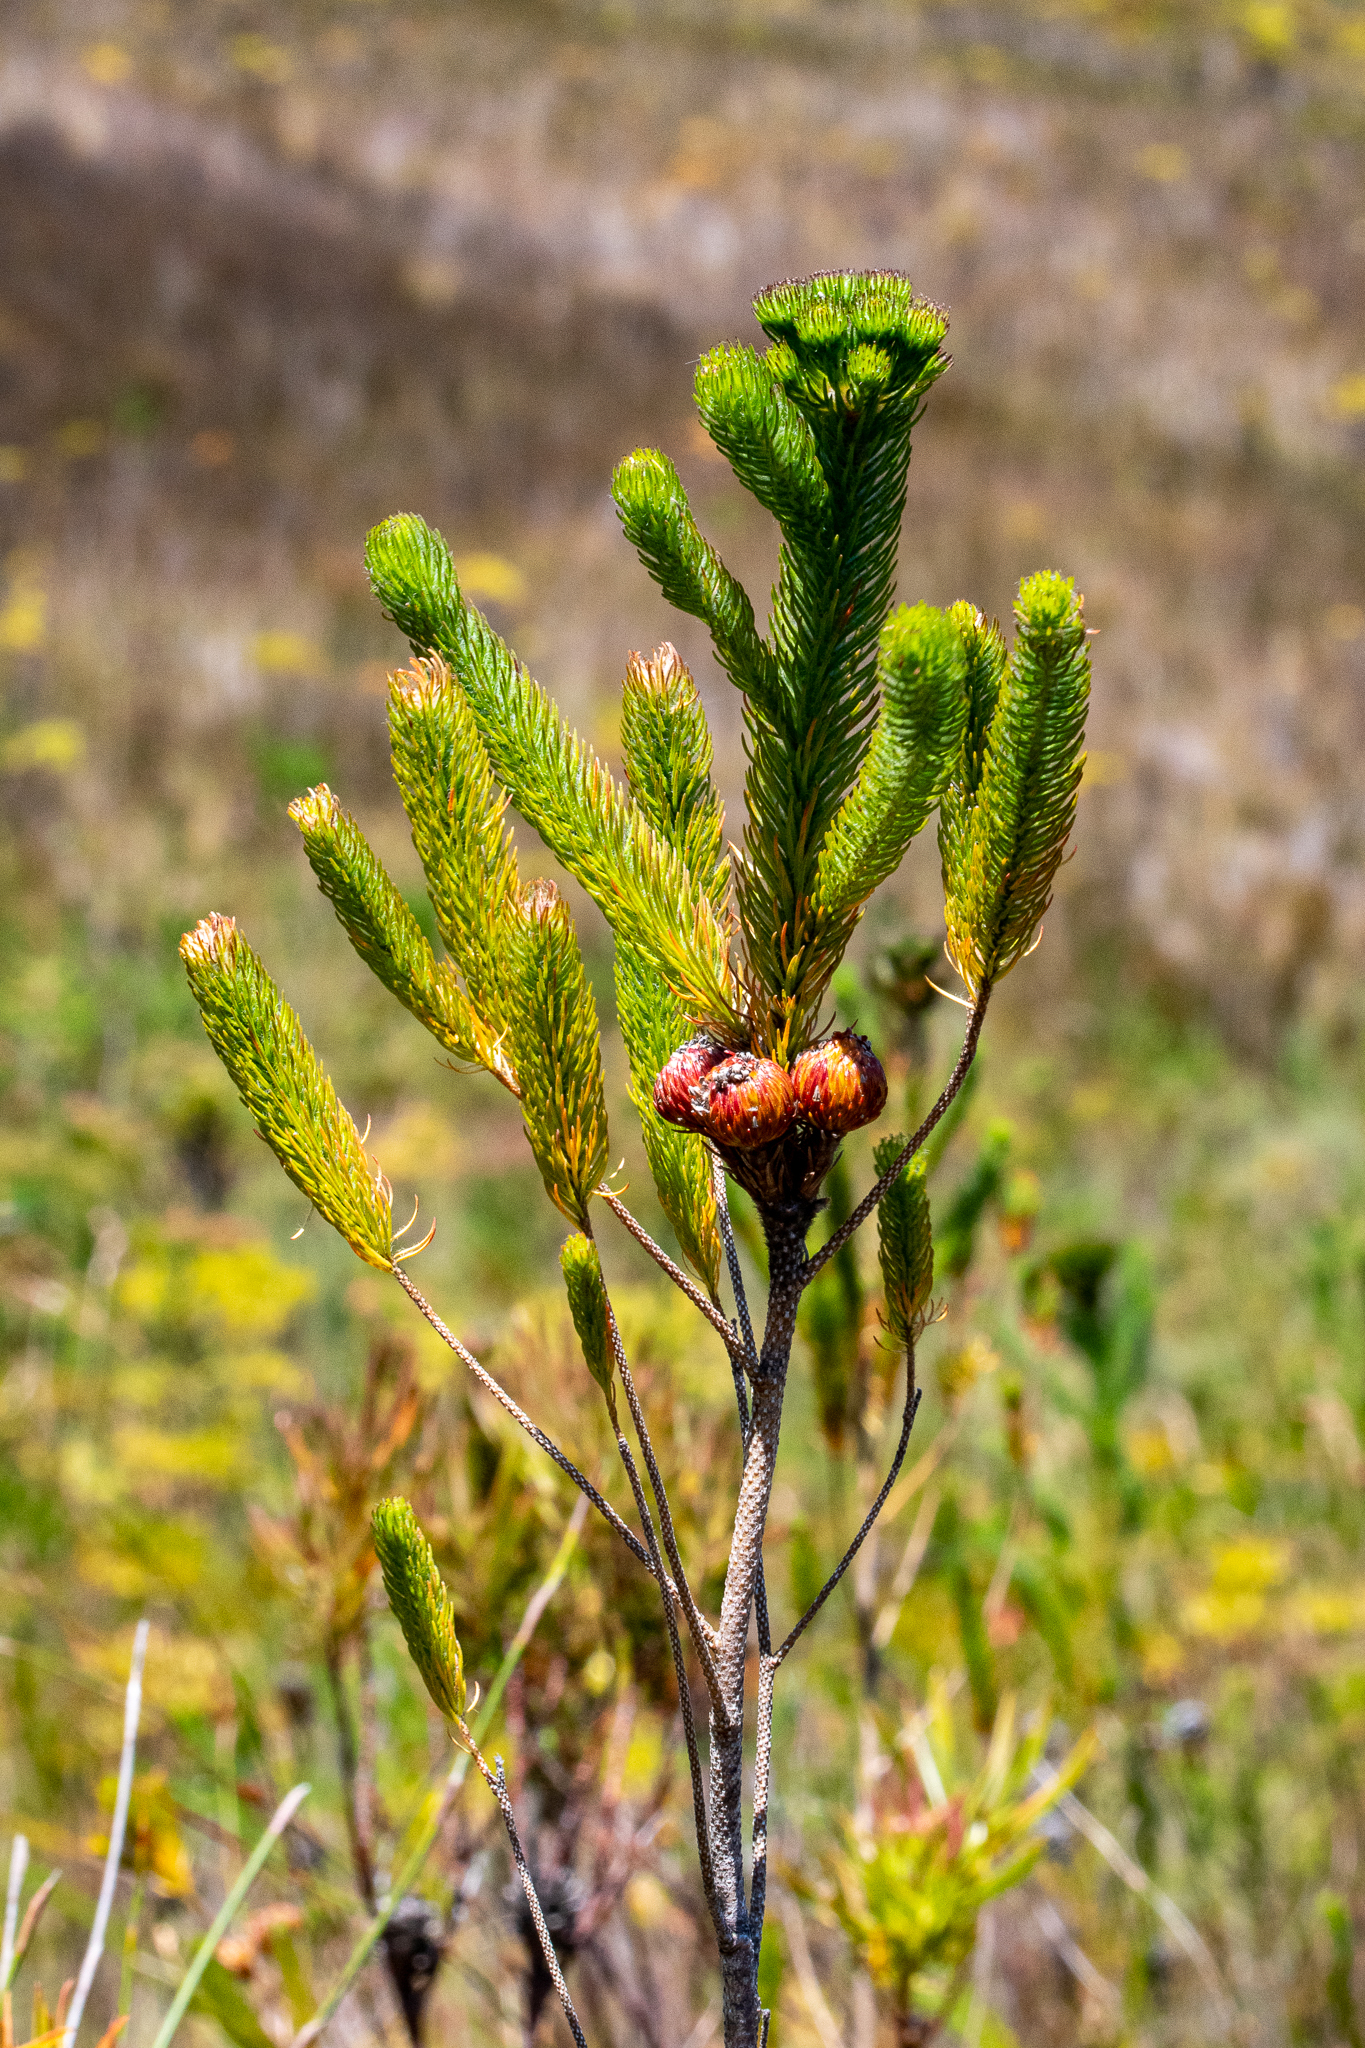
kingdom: Plantae
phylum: Tracheophyta
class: Magnoliopsida
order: Bruniales
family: Bruniaceae
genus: Berzelia
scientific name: Berzelia albiflora
